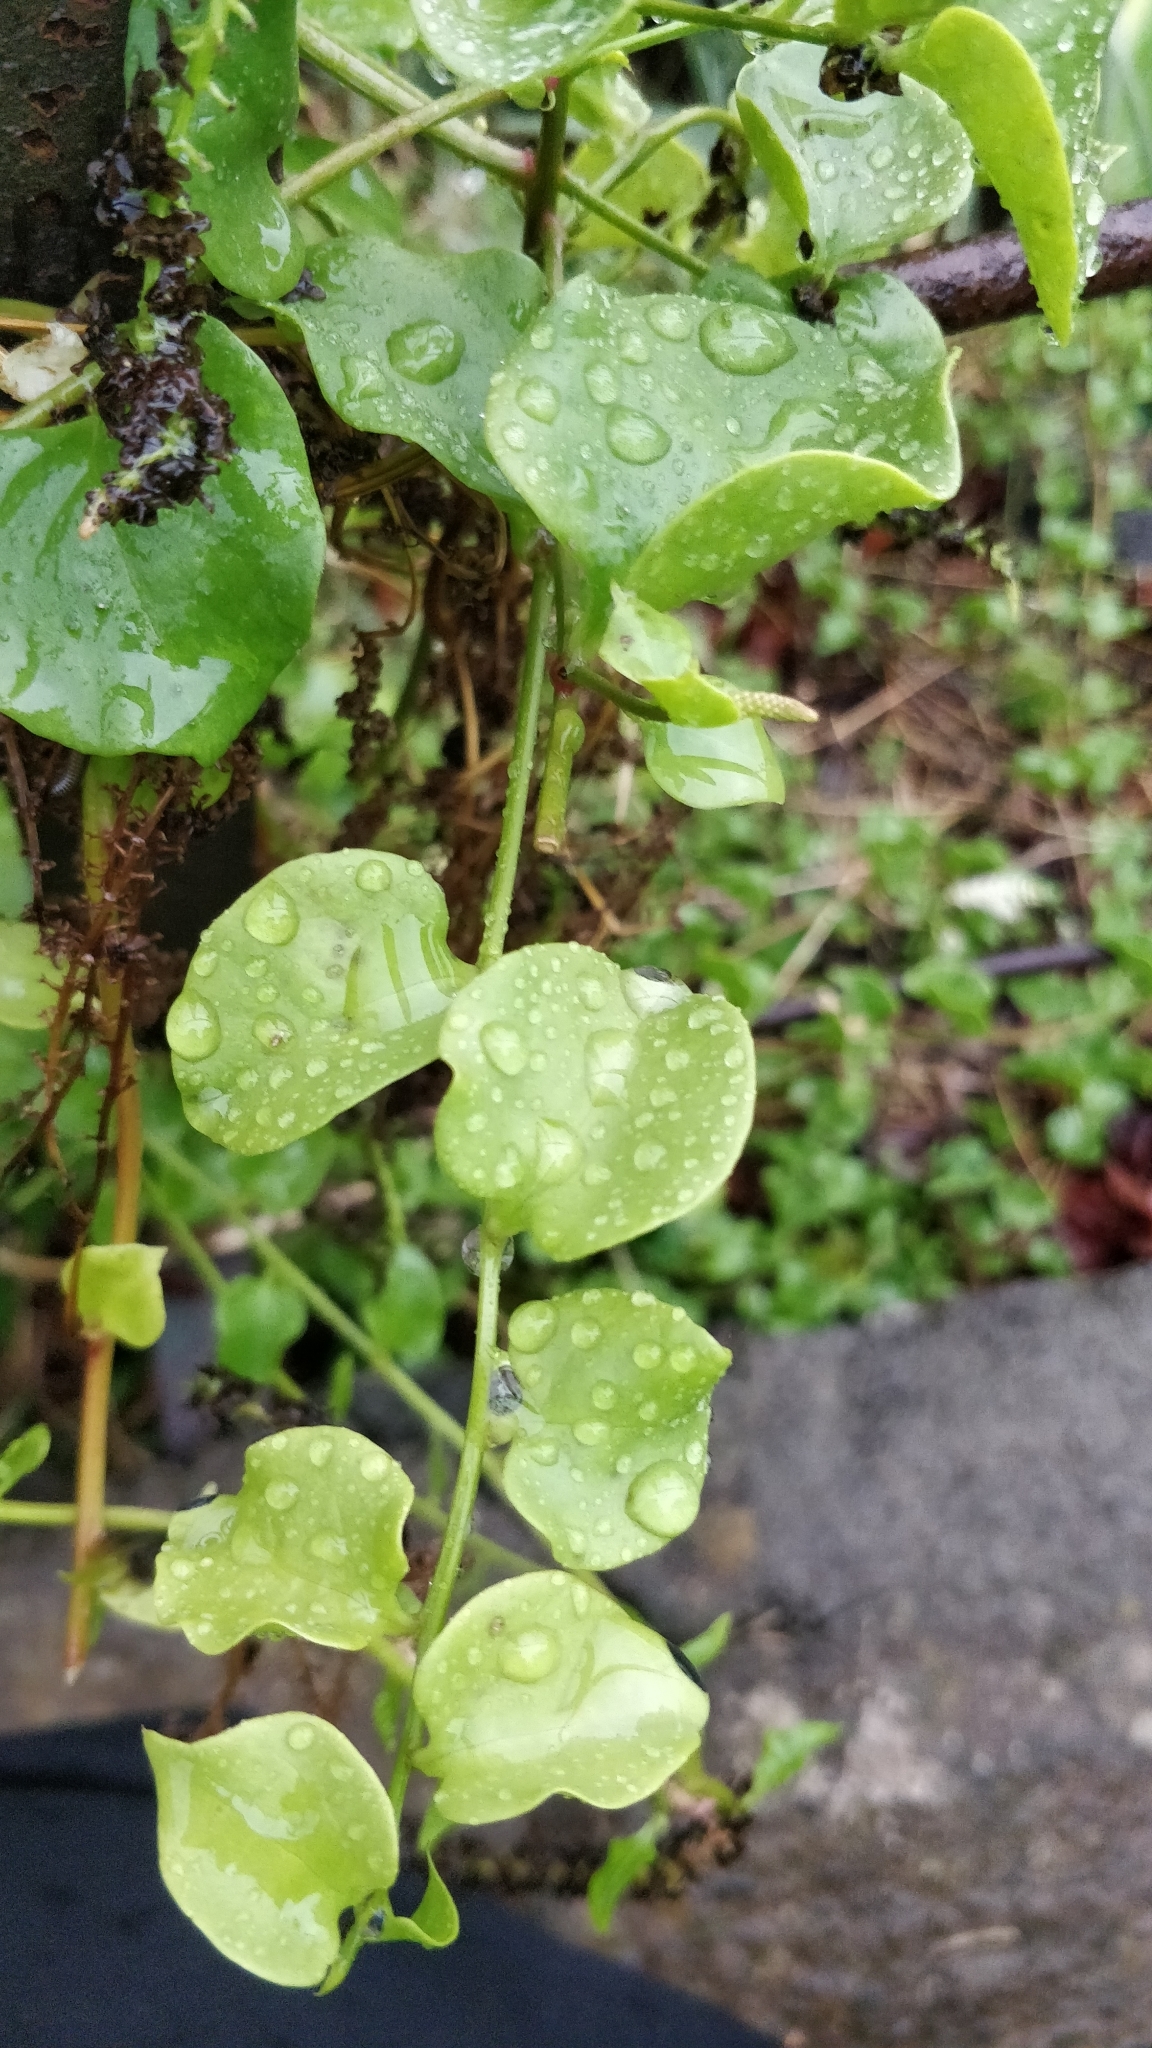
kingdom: Plantae
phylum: Tracheophyta
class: Magnoliopsida
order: Caryophyllales
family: Basellaceae
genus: Anredera
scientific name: Anredera cordifolia
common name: Heartleaf madeiravine
